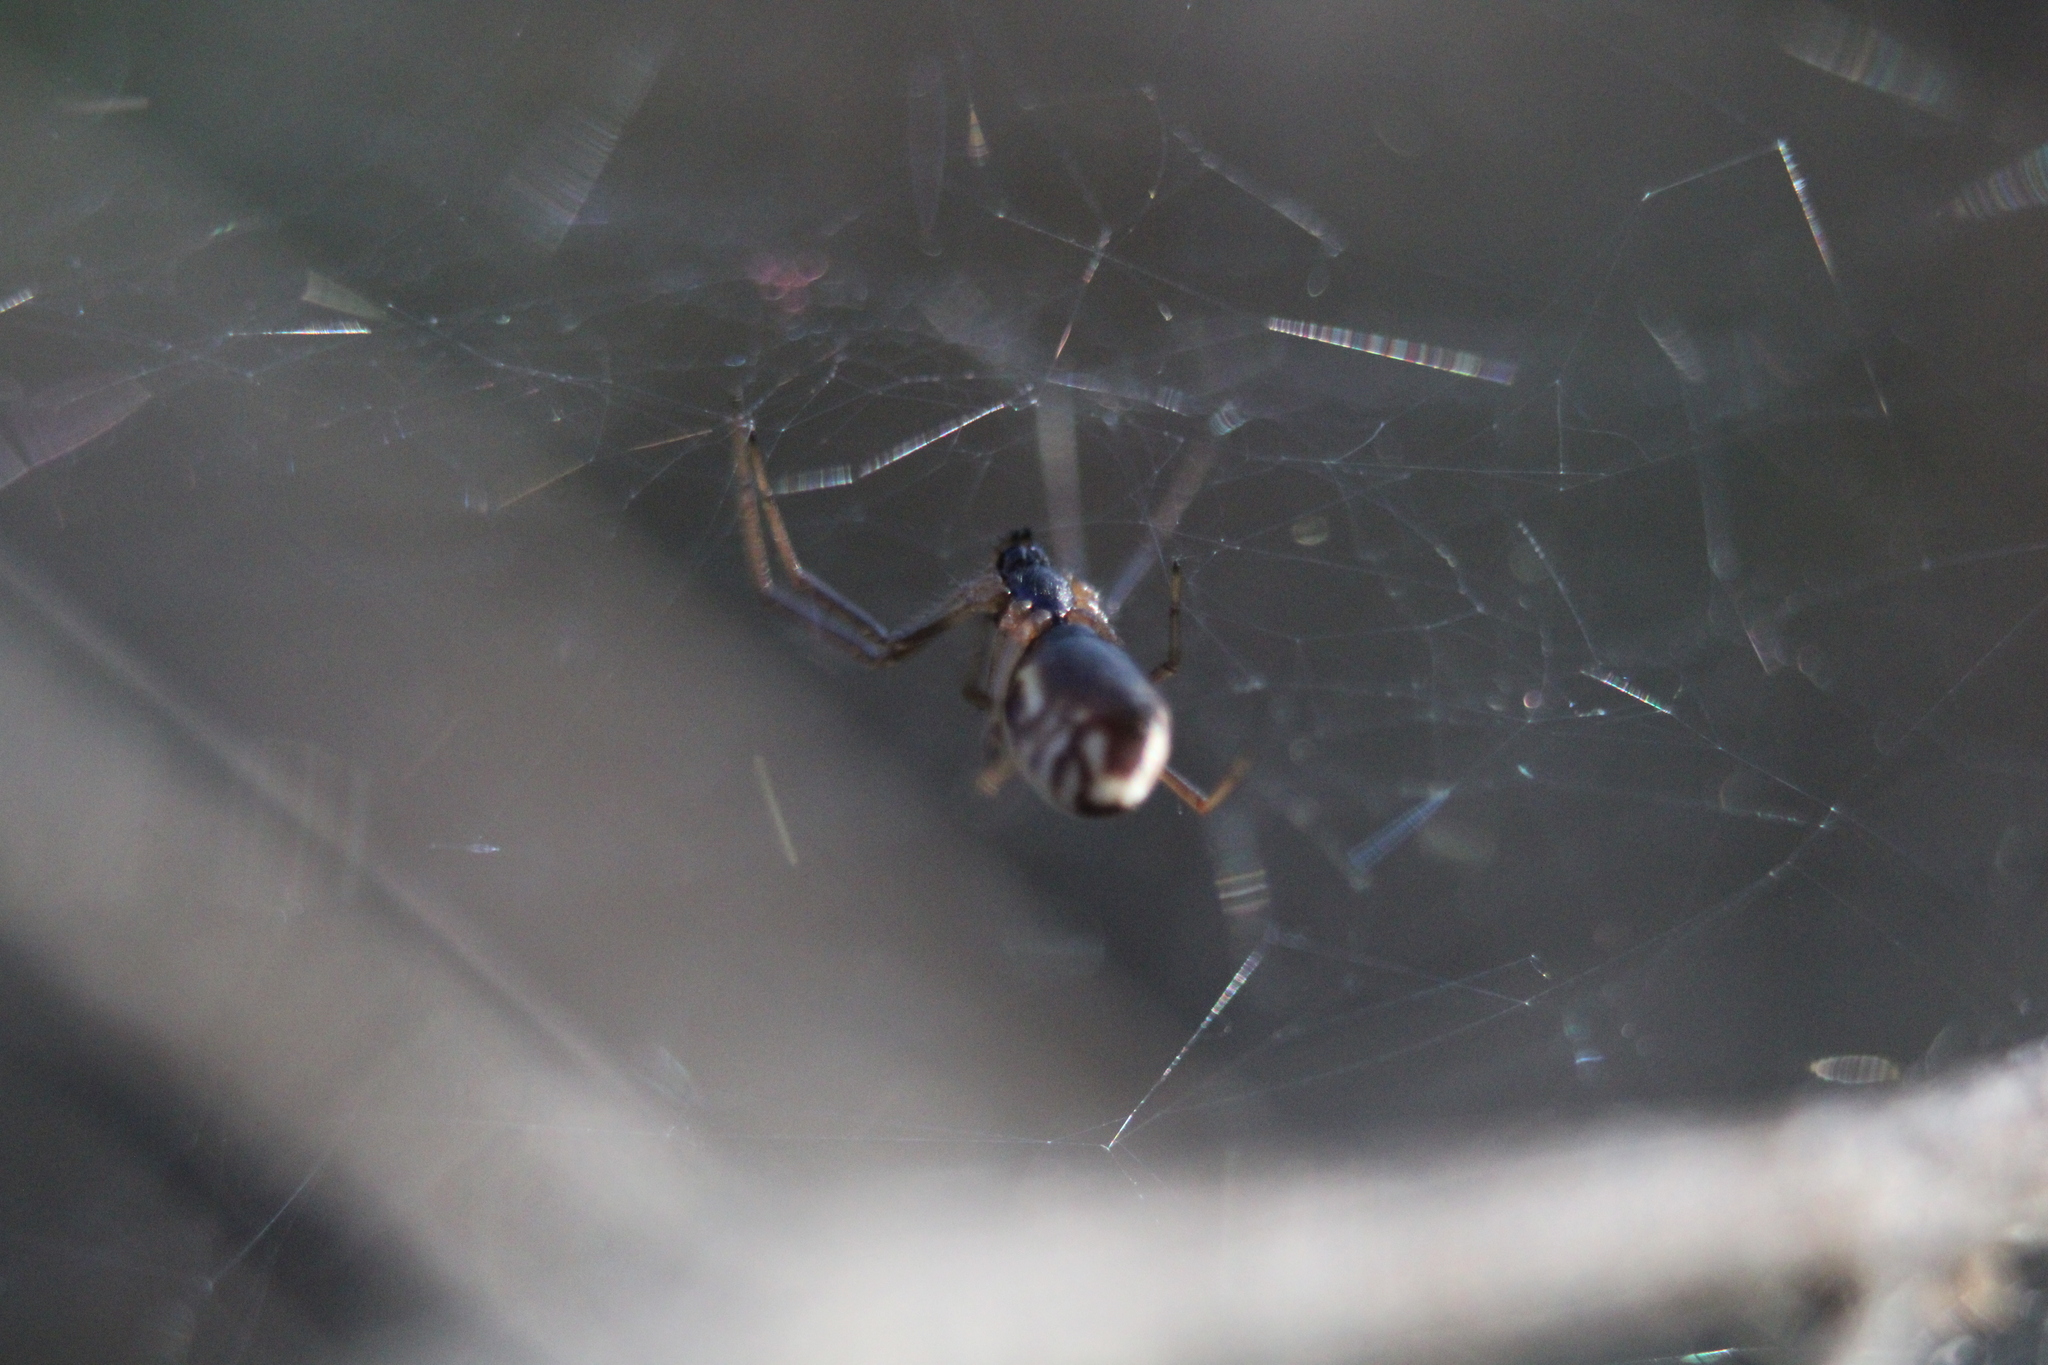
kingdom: Animalia
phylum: Arthropoda
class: Arachnida
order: Araneae
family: Linyphiidae
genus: Frontinella
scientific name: Frontinella pyramitela
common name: Bowl-and-doily spider
